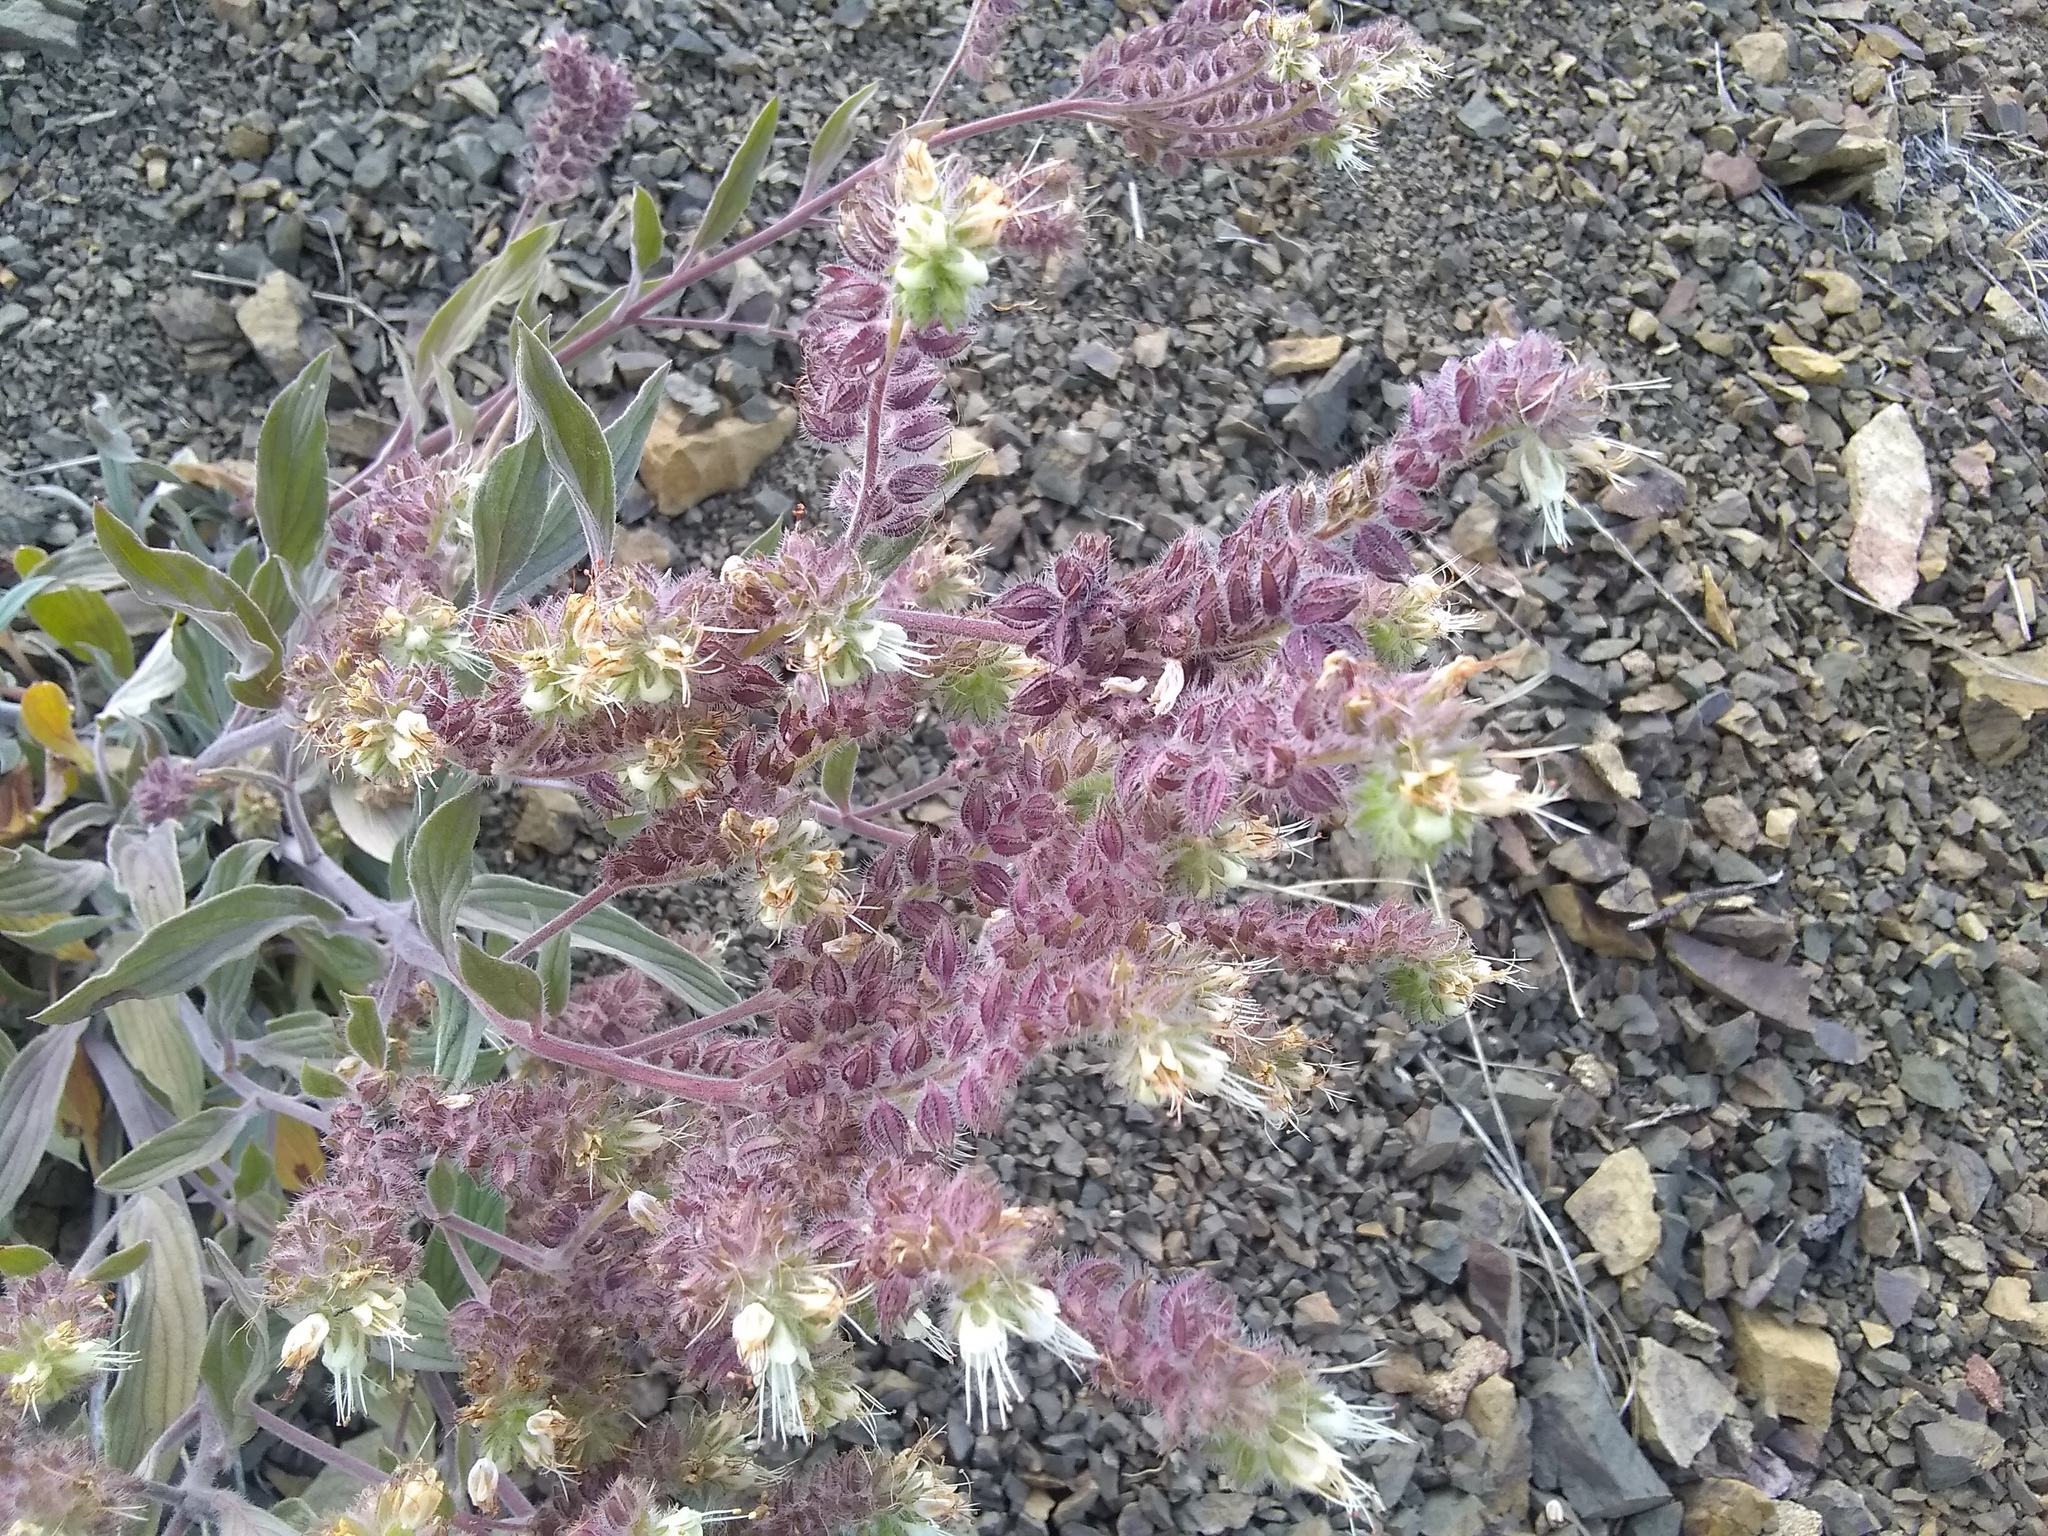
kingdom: Plantae
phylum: Tracheophyta
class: Magnoliopsida
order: Boraginales
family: Hydrophyllaceae
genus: Phacelia
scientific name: Phacelia hastata
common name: Silver-leaved phacelia
